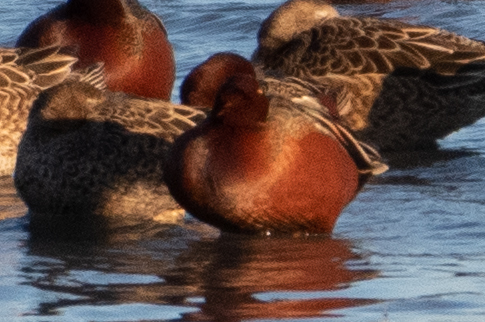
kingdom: Animalia
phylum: Chordata
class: Aves
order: Anseriformes
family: Anatidae
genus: Spatula
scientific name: Spatula cyanoptera
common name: Cinnamon teal
